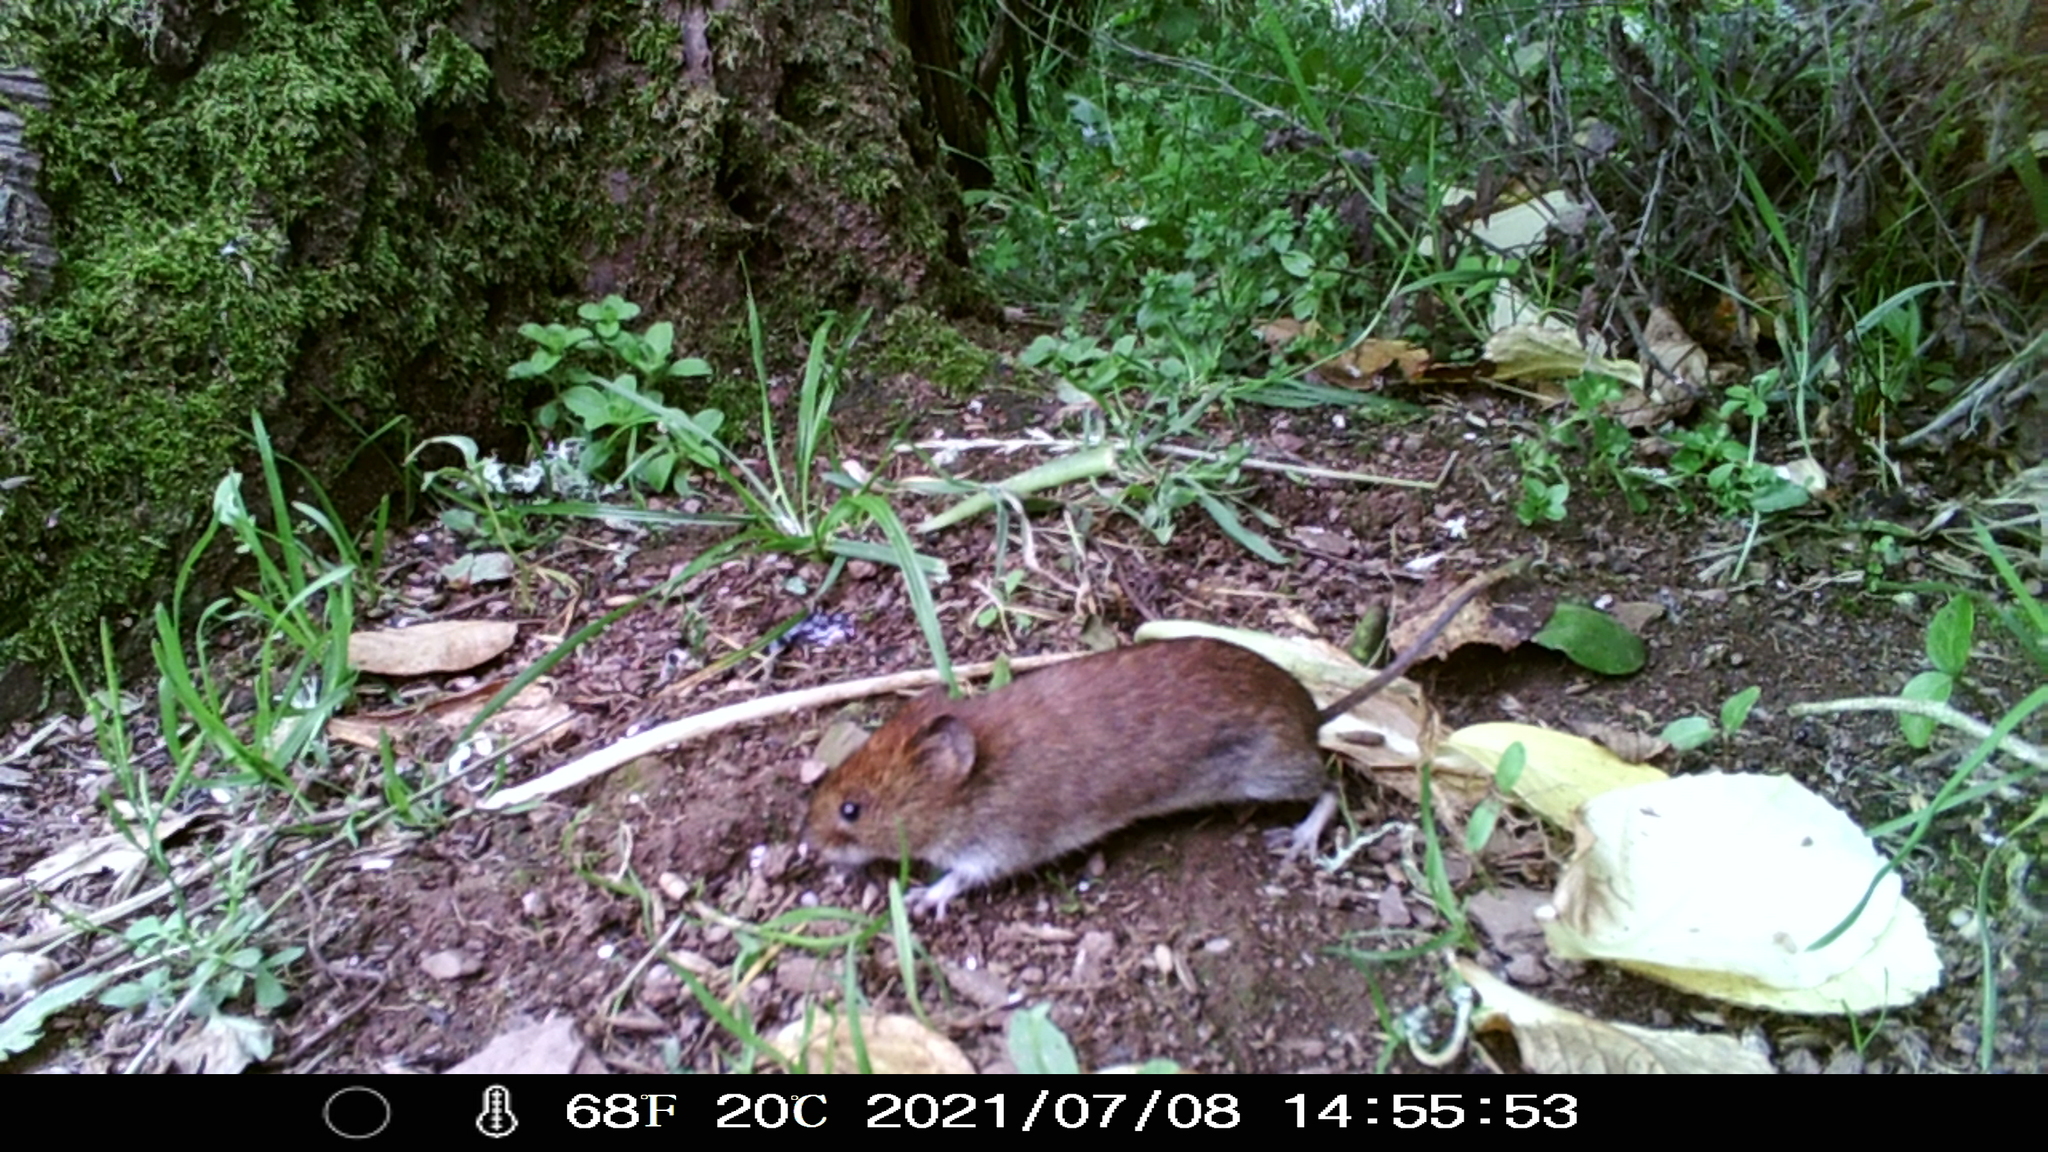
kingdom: Animalia
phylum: Chordata
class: Mammalia
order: Rodentia
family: Cricetidae
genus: Myodes
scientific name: Myodes glareolus
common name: Bank vole
